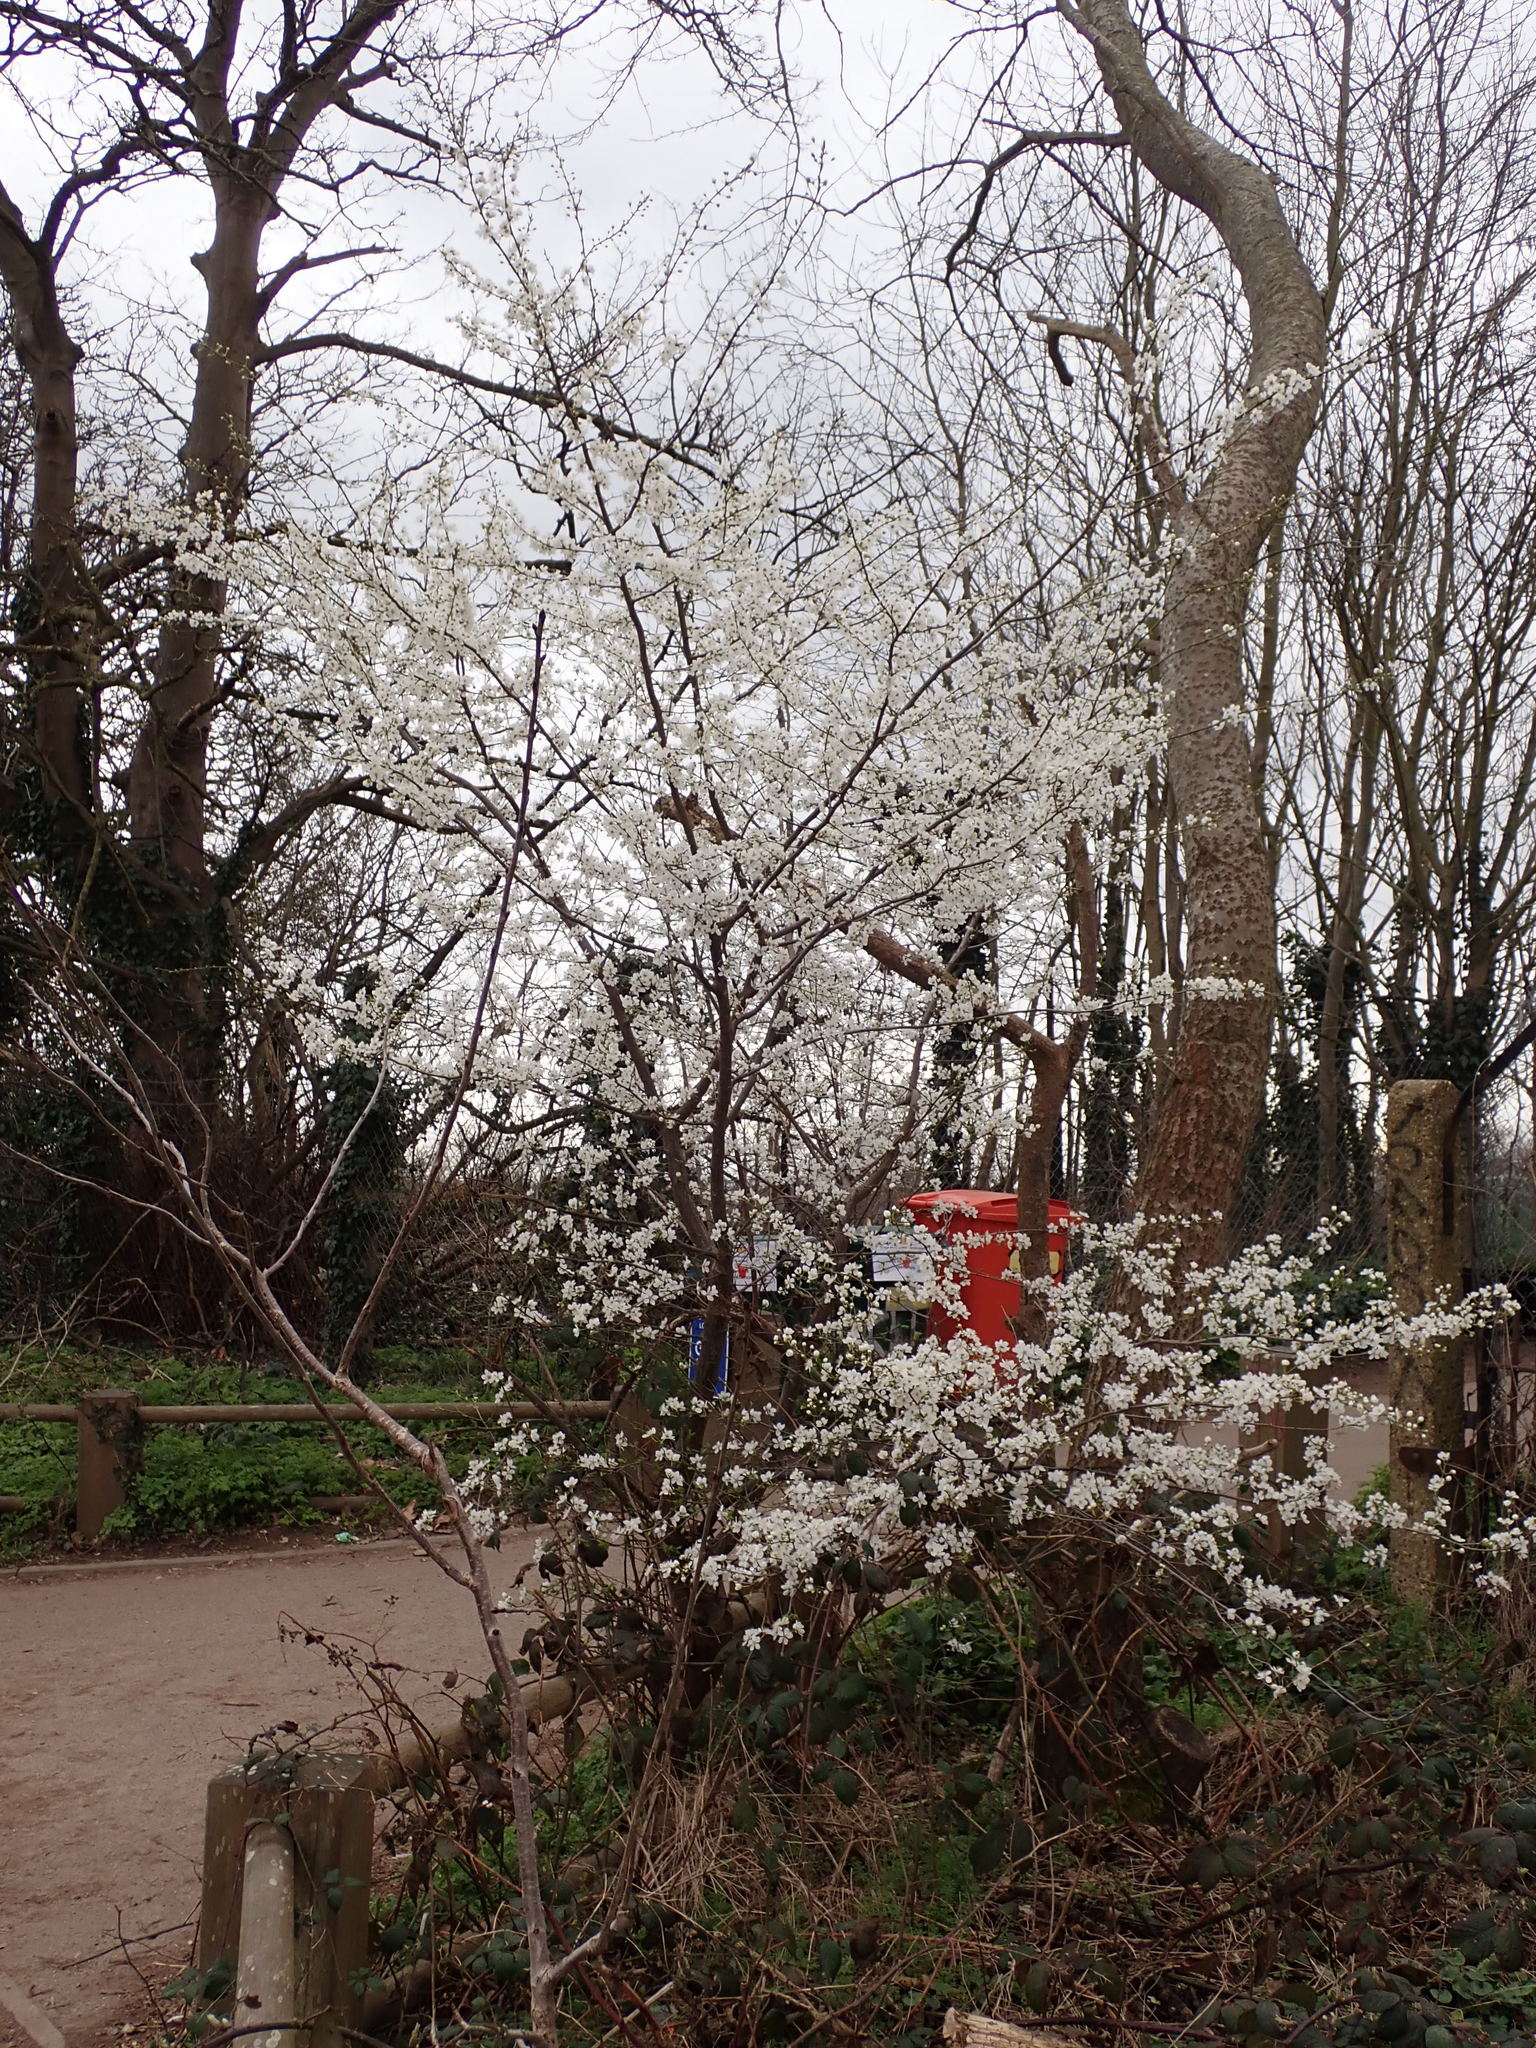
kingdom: Plantae
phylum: Tracheophyta
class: Magnoliopsida
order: Rosales
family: Rosaceae
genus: Prunus
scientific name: Prunus cerasifera
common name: Cherry plum
